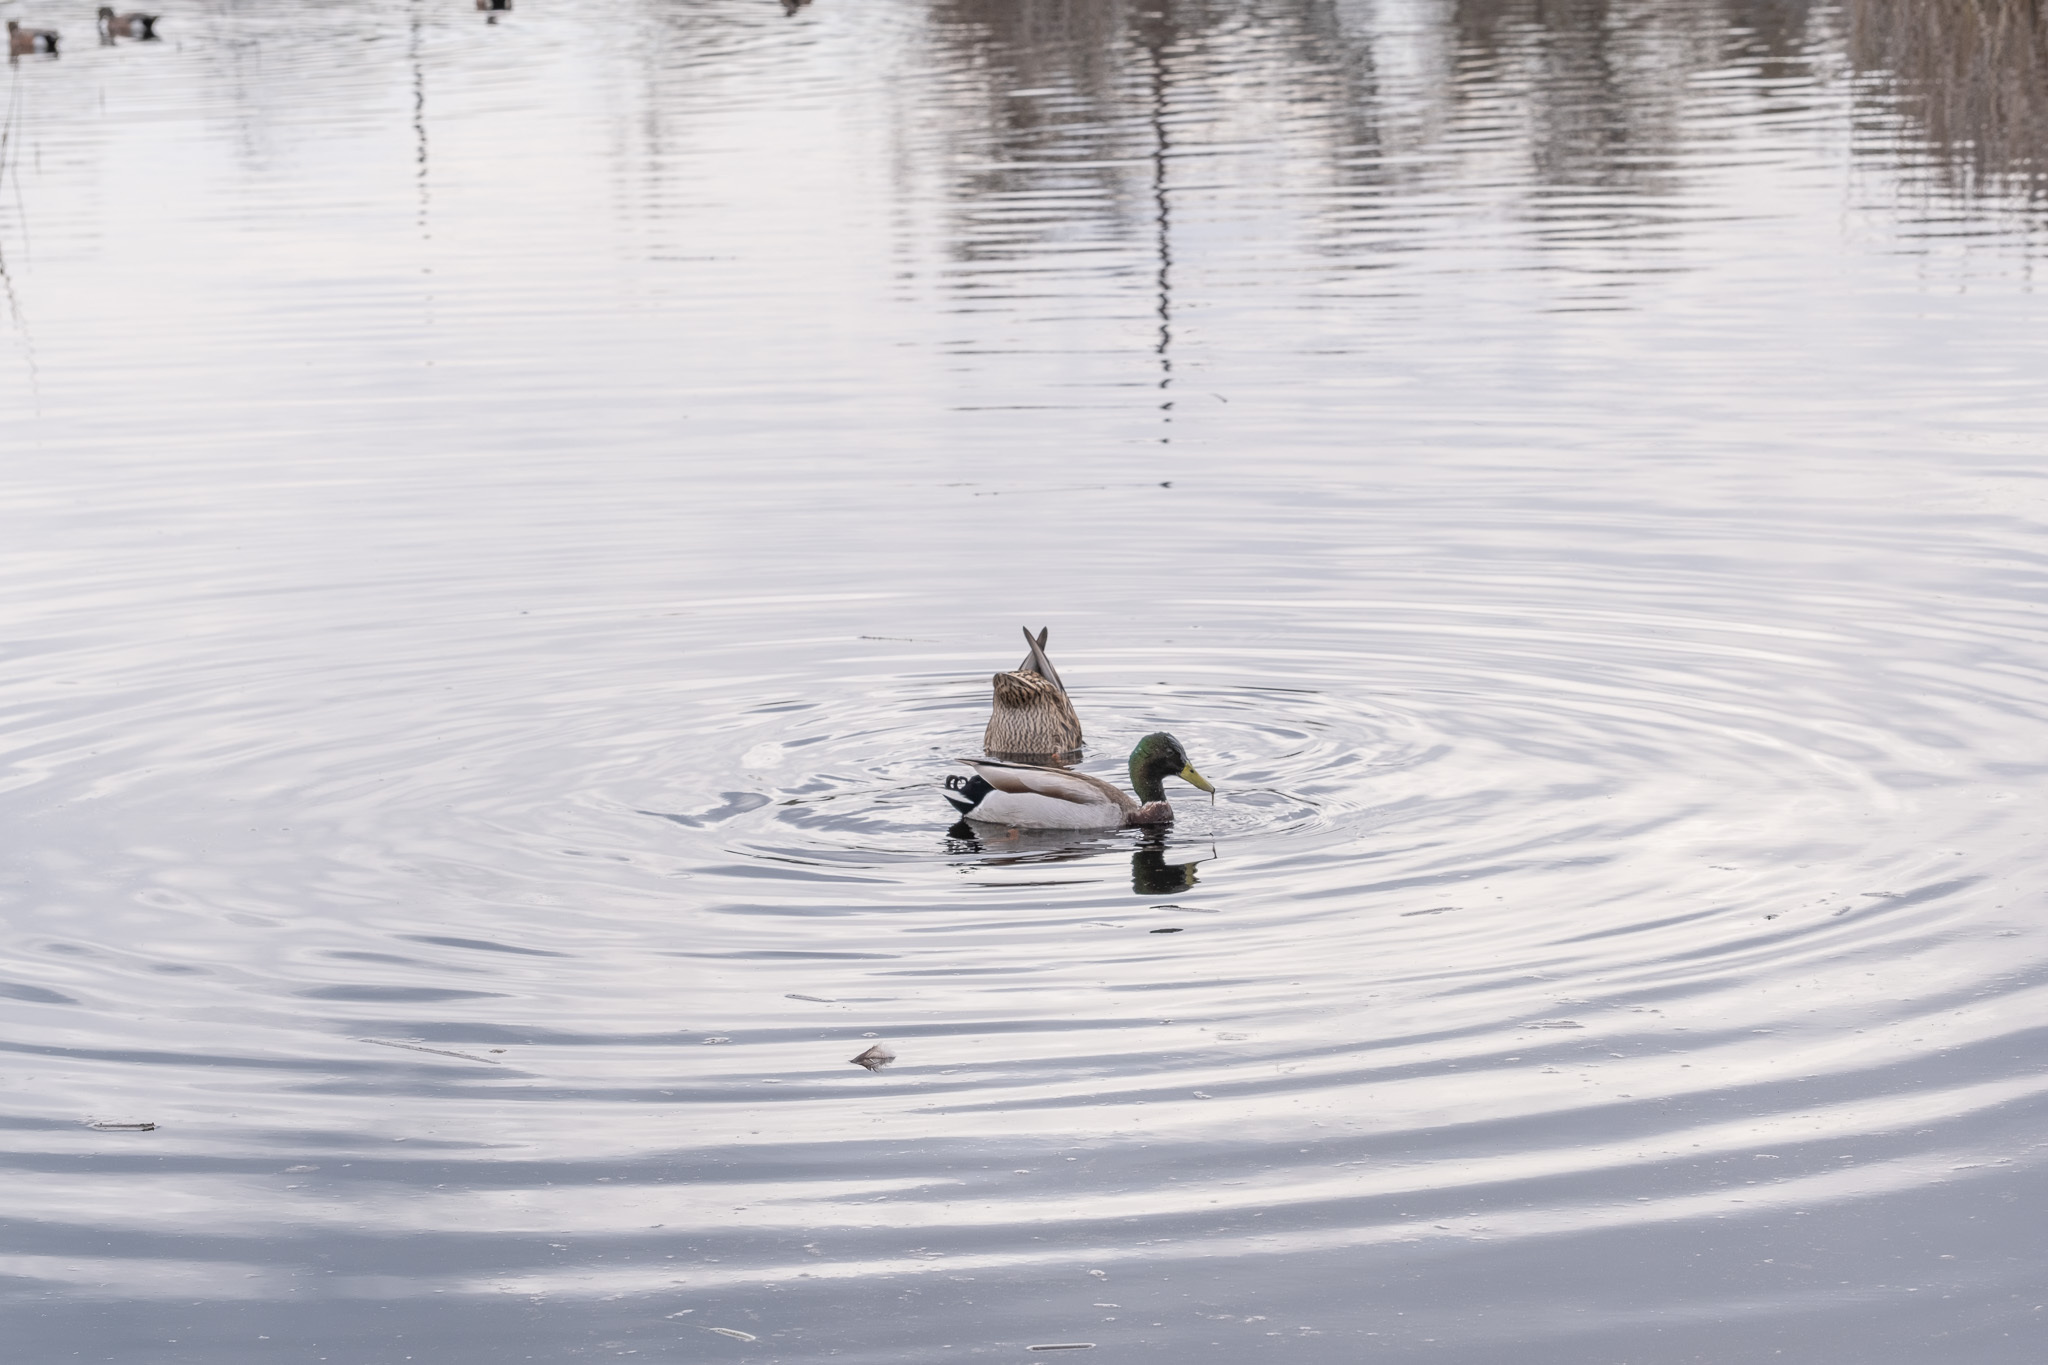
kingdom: Animalia
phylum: Chordata
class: Aves
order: Anseriformes
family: Anatidae
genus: Anas
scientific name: Anas platyrhynchos
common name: Mallard
